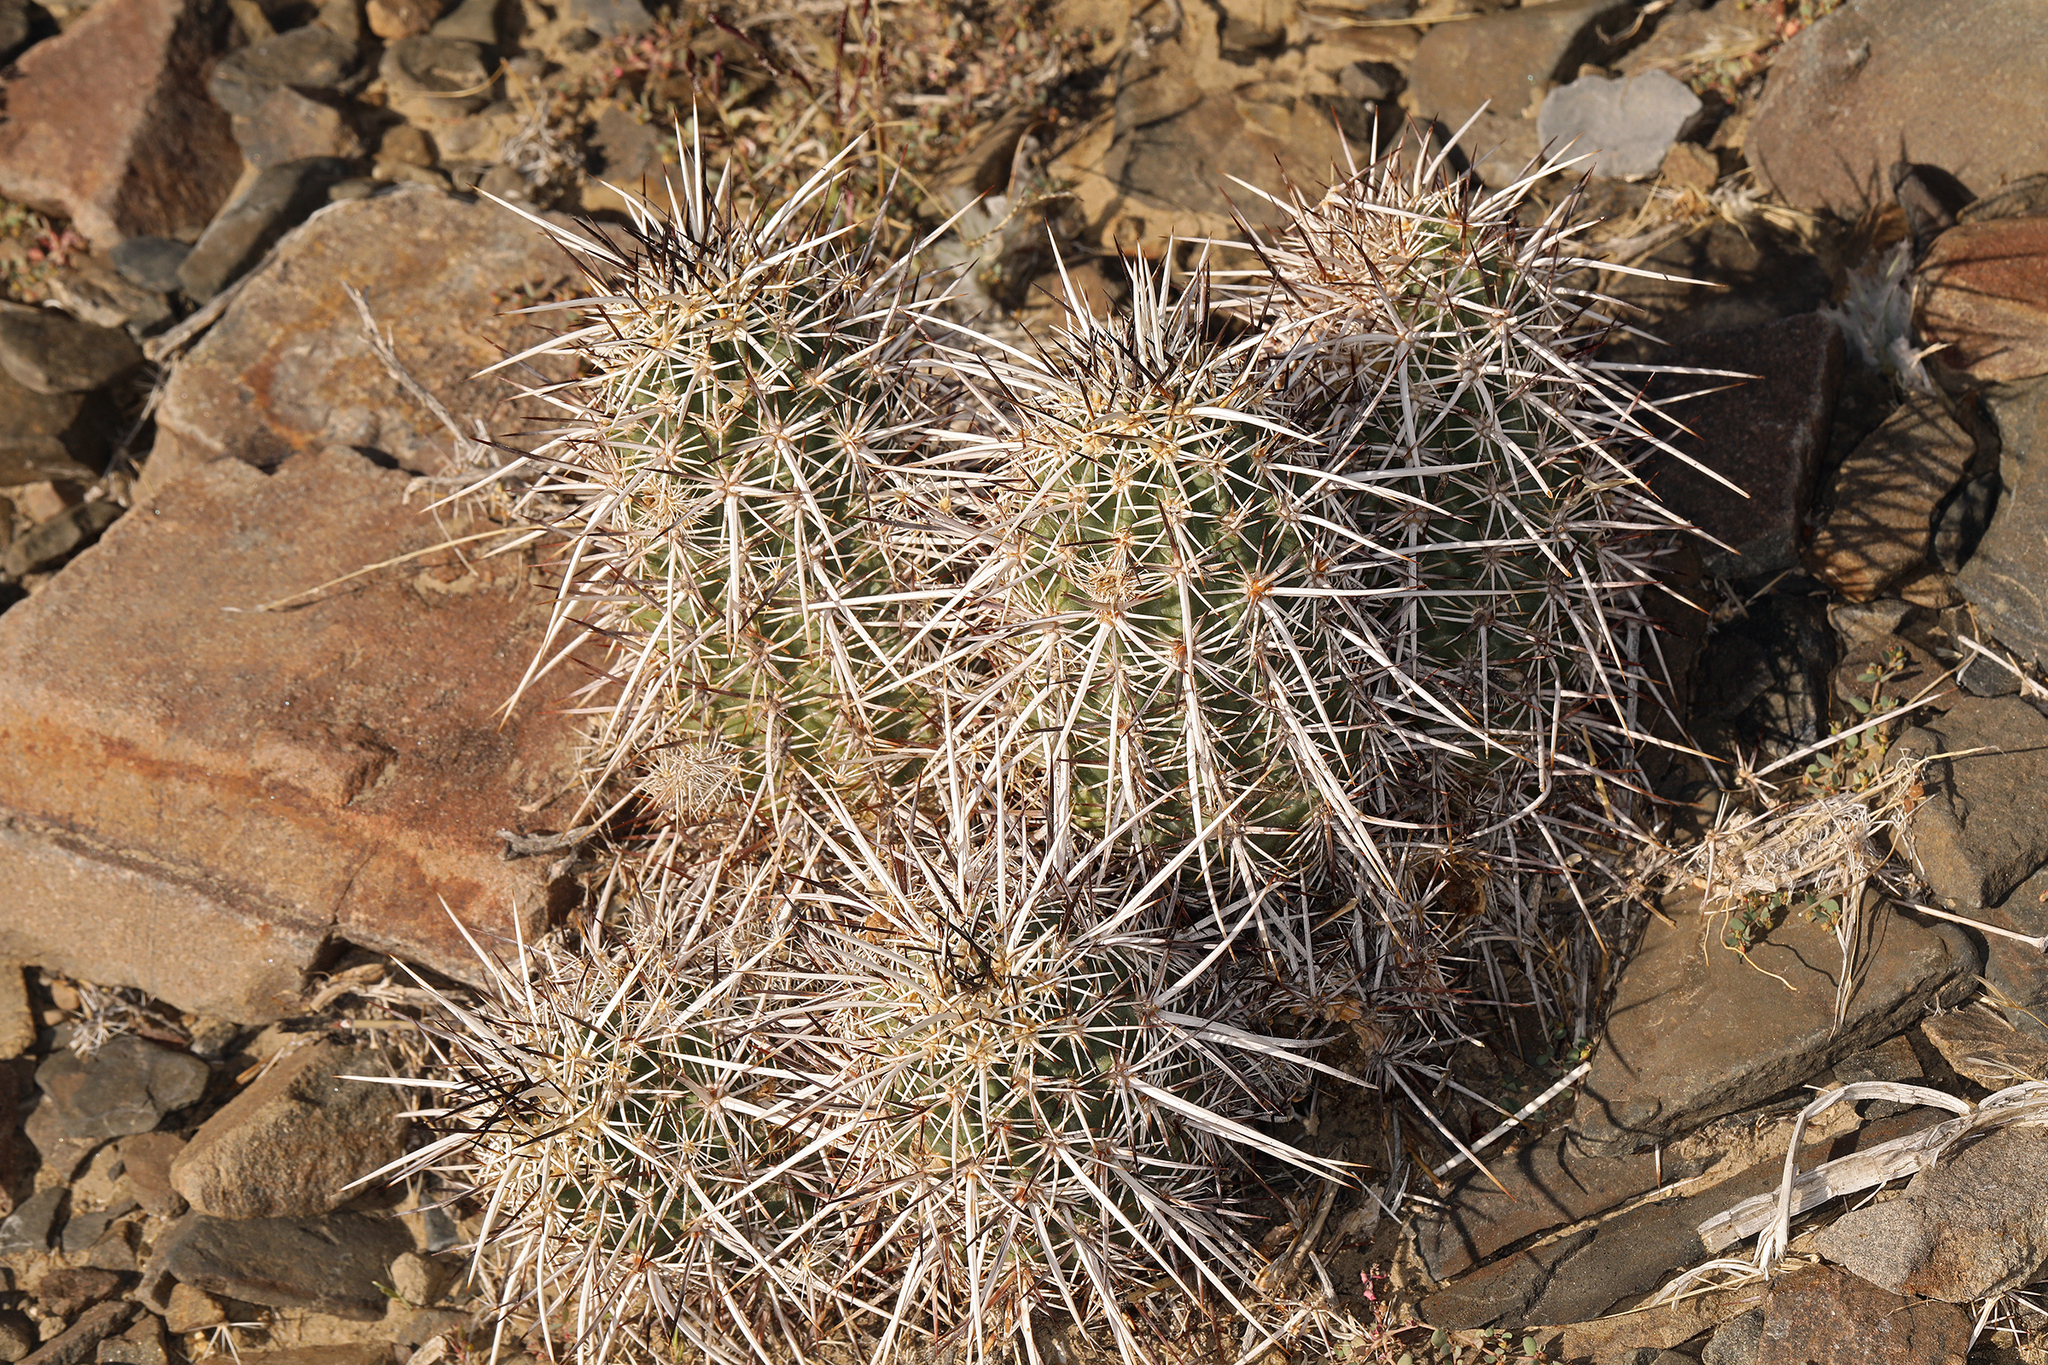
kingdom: Plantae
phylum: Tracheophyta
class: Magnoliopsida
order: Caryophyllales
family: Cactaceae
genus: Echinocereus
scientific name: Echinocereus engelmannii
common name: Engelmann's hedgehog cactus
